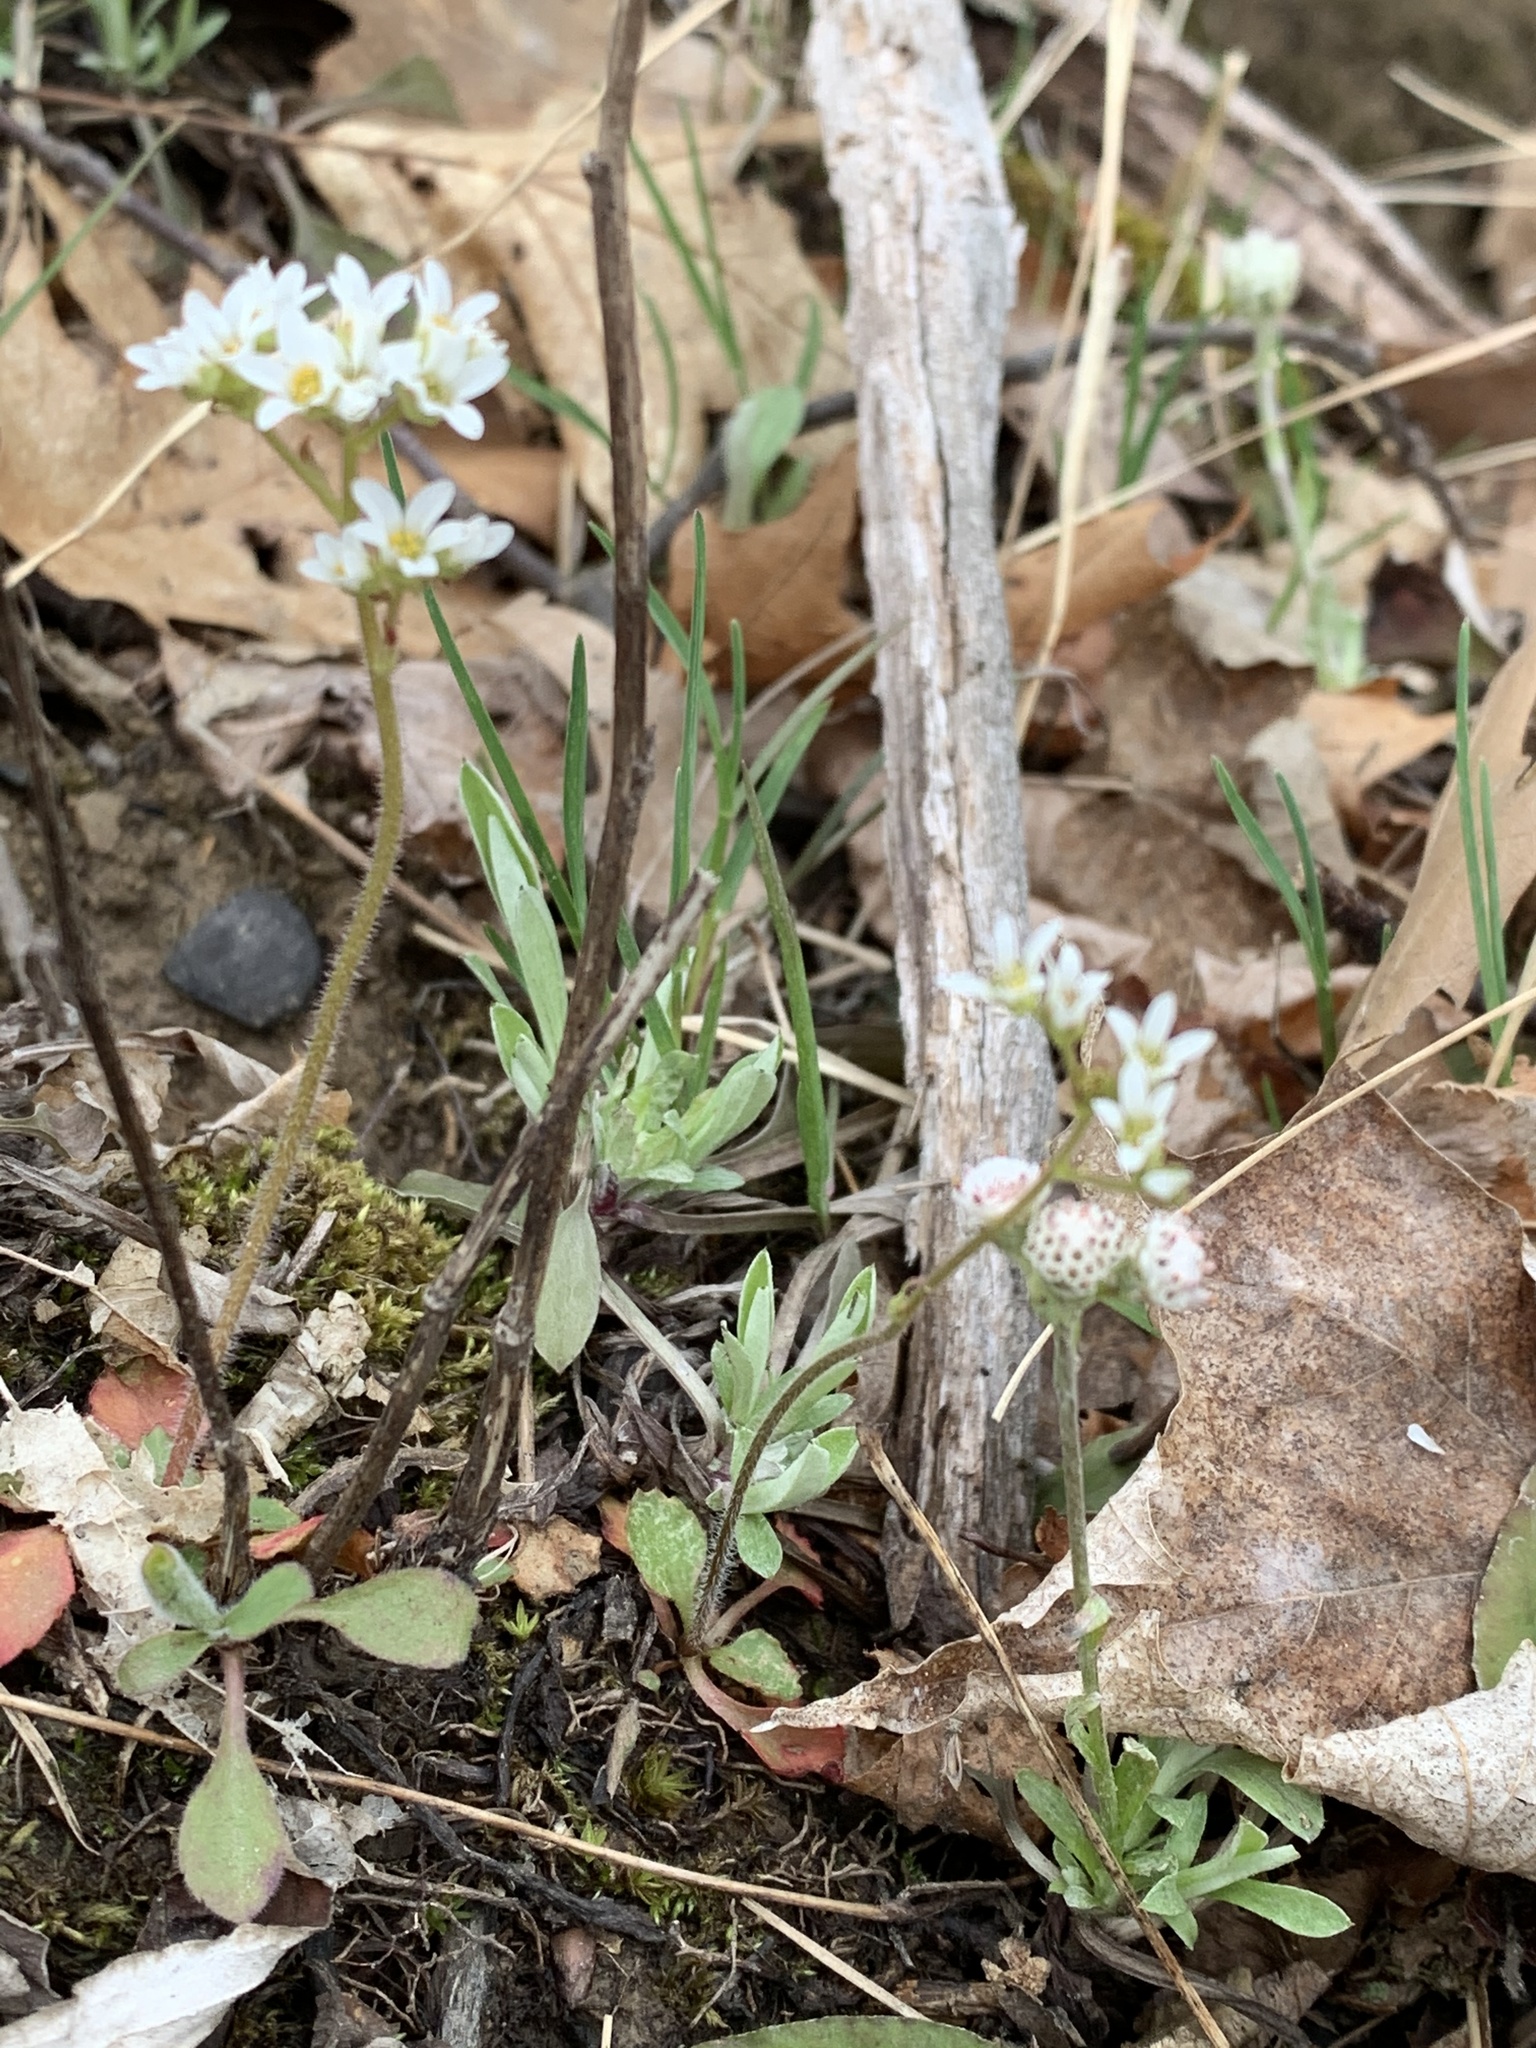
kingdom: Plantae
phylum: Tracheophyta
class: Magnoliopsida
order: Saxifragales
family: Saxifragaceae
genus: Micranthes
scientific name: Micranthes virginiensis
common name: Early saxifrage
